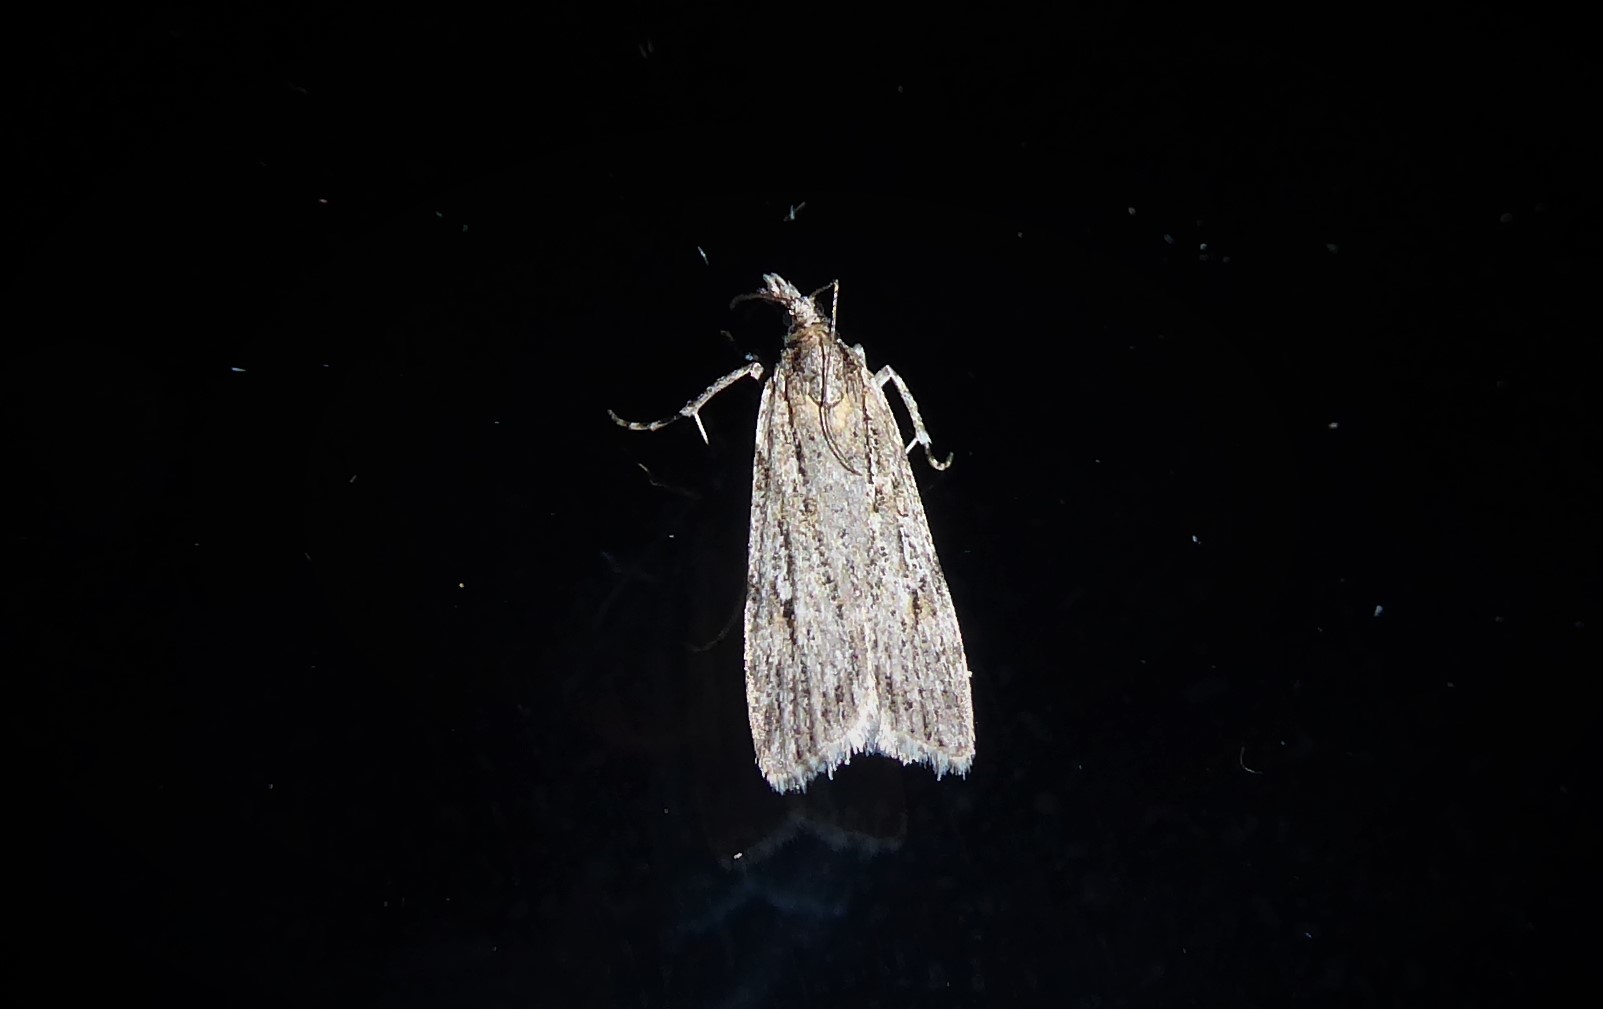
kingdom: Animalia
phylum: Arthropoda
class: Insecta
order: Lepidoptera
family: Crambidae
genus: Scoparia
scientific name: Scoparia chalicodes
